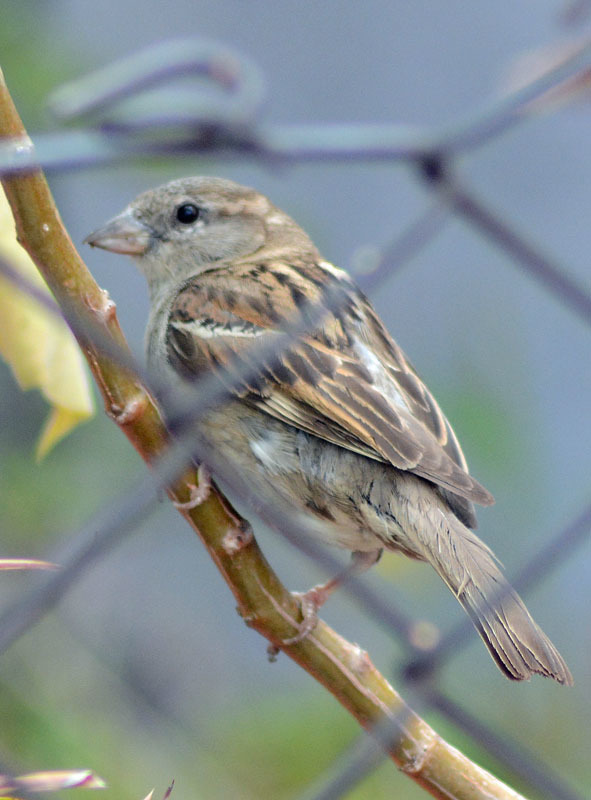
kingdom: Animalia
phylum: Chordata
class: Aves
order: Passeriformes
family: Passeridae
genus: Passer
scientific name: Passer domesticus
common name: House sparrow
